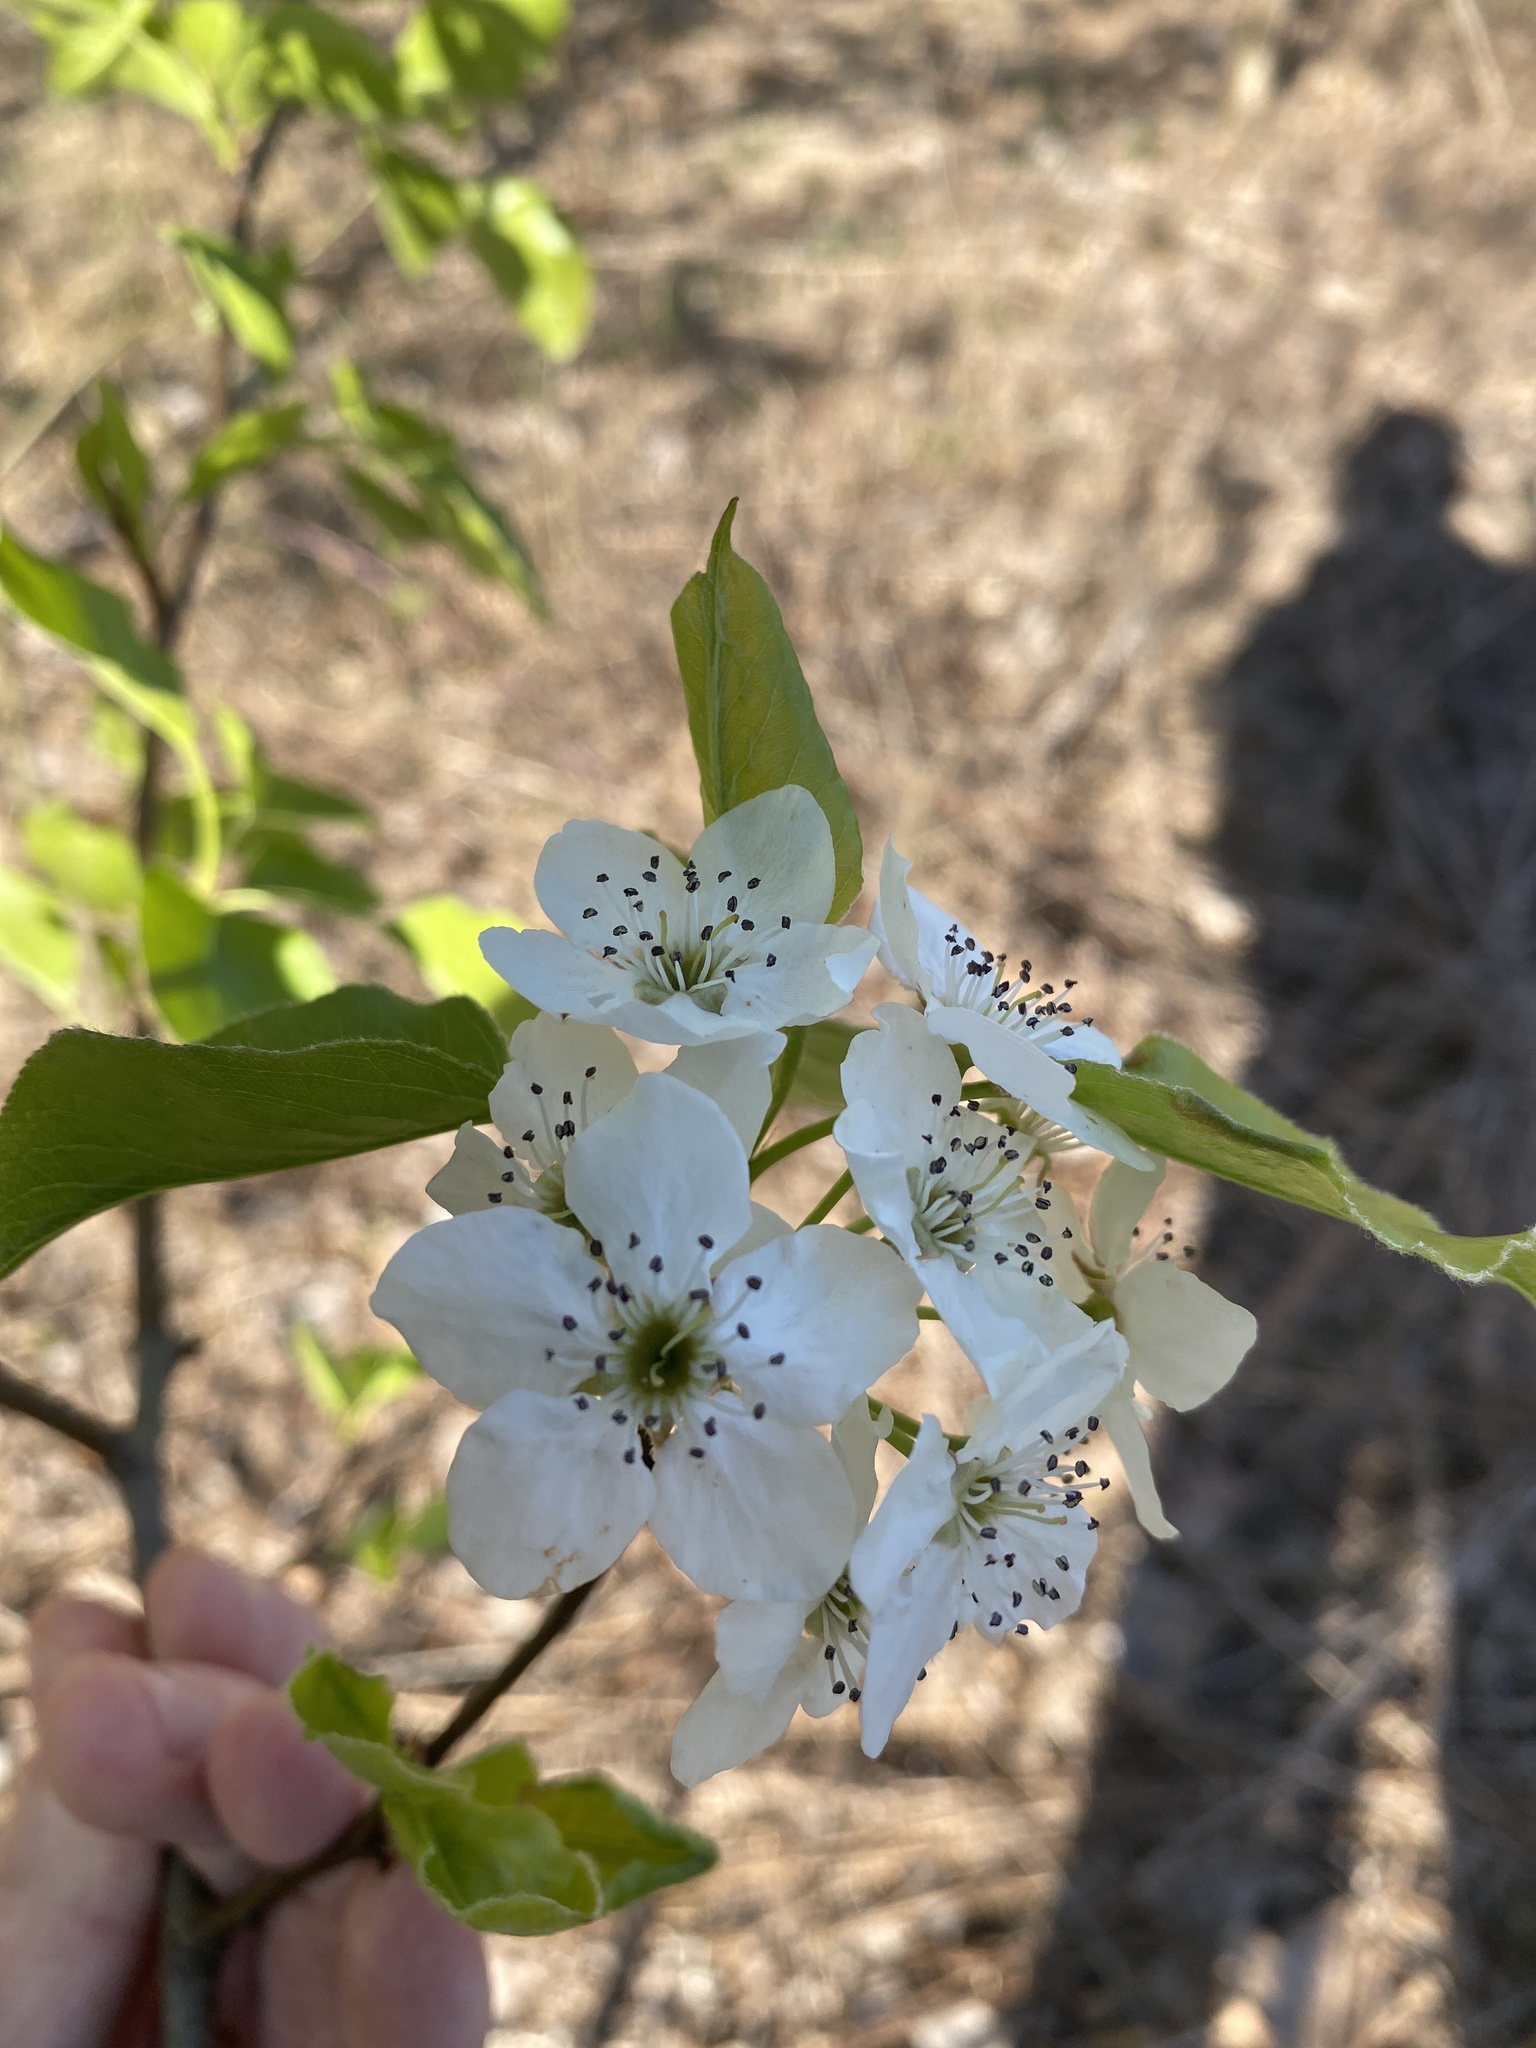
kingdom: Plantae
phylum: Tracheophyta
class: Magnoliopsida
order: Rosales
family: Rosaceae
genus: Pyrus
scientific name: Pyrus calleryana
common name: Callery pear
